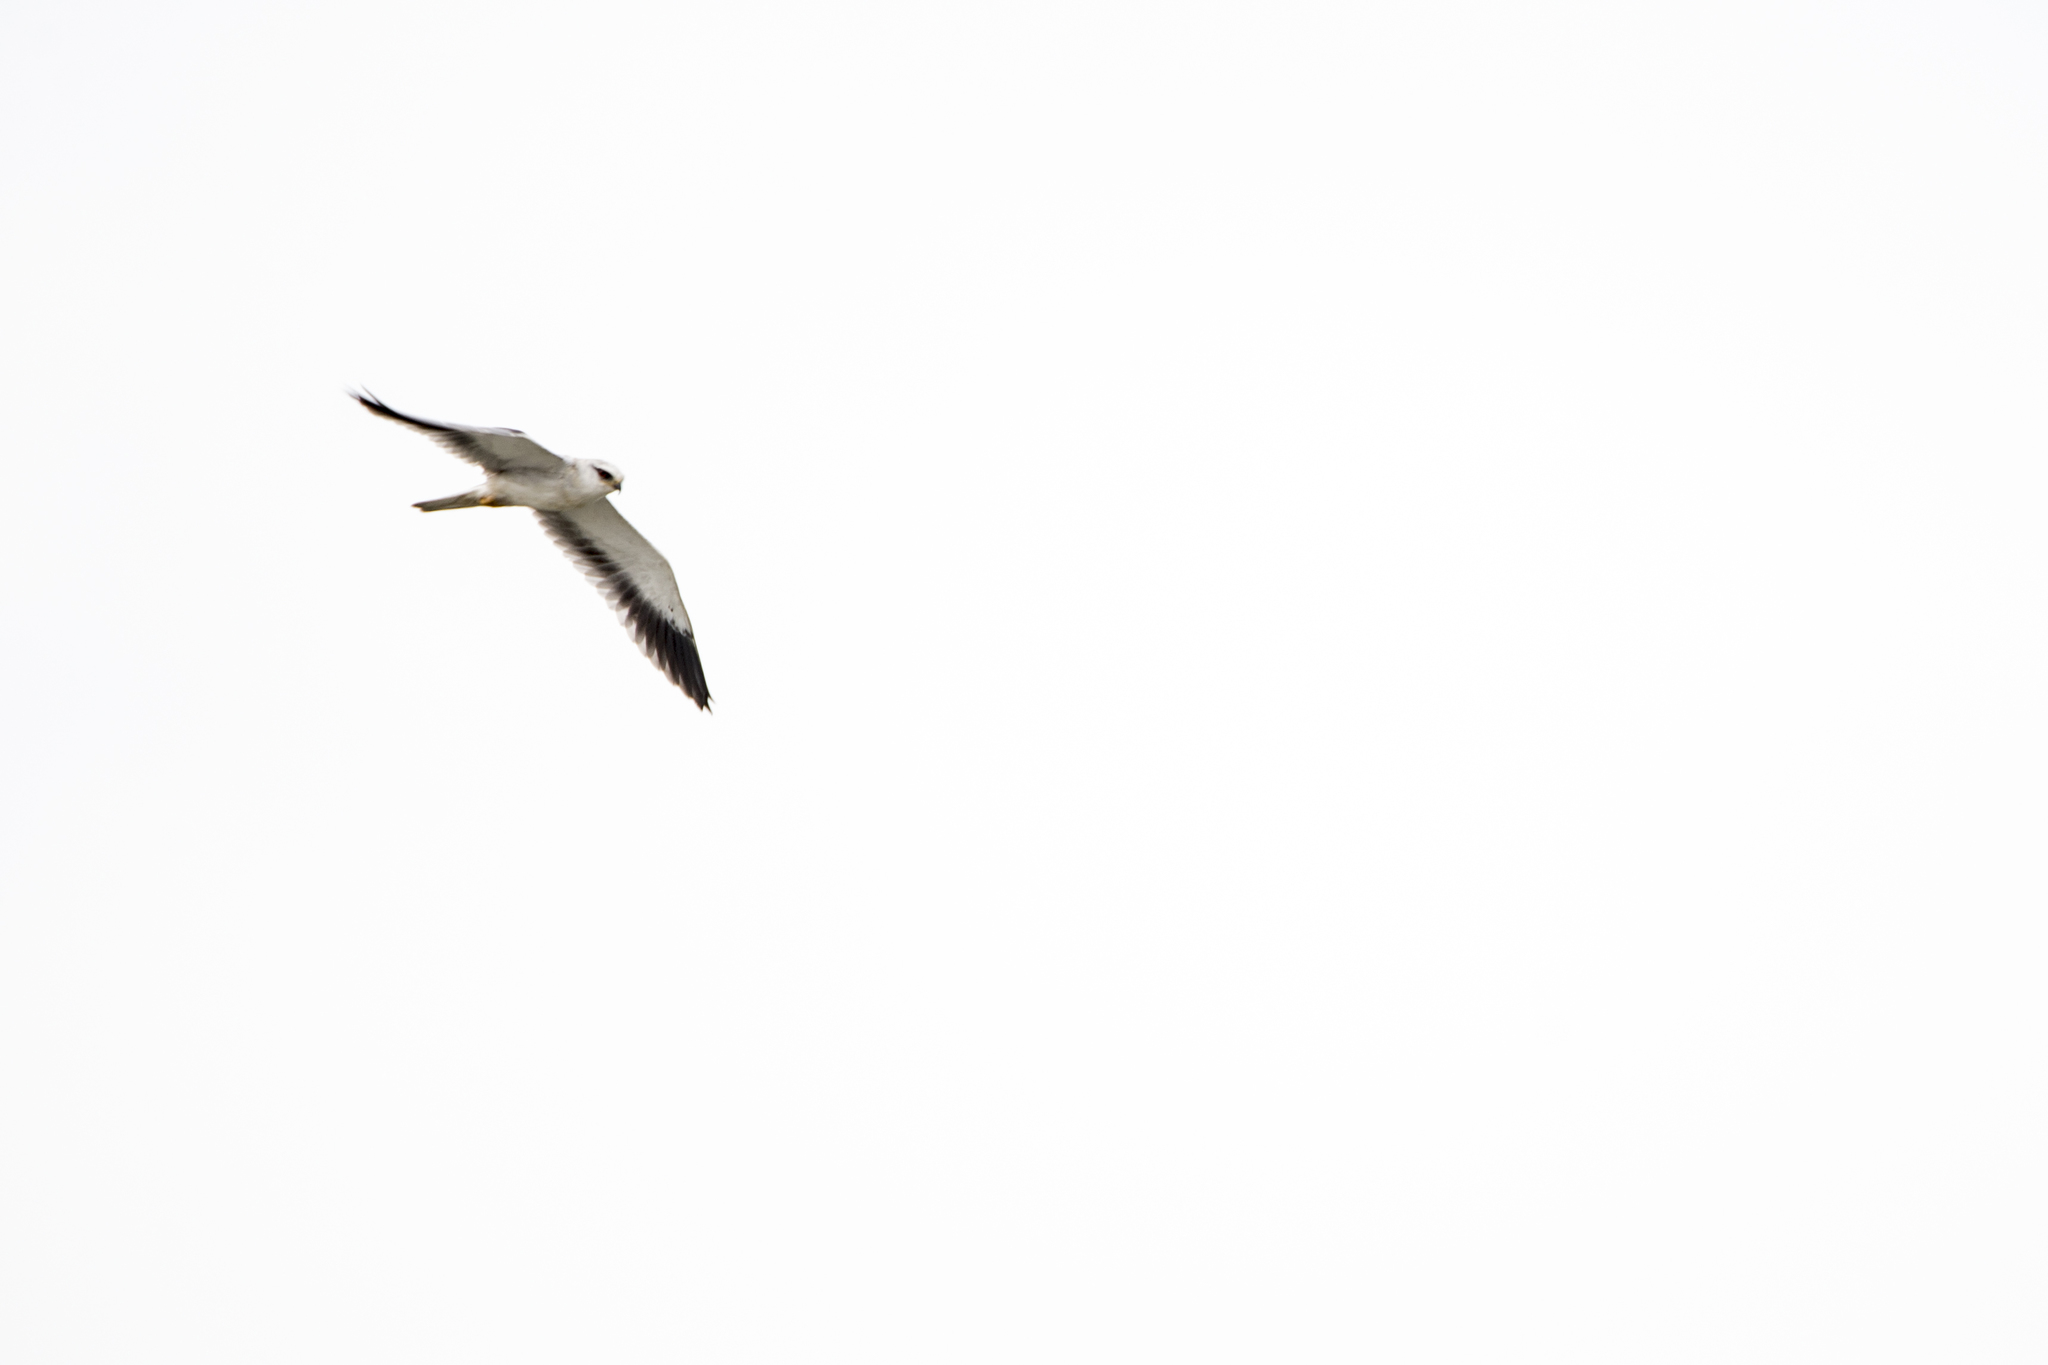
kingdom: Animalia
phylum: Chordata
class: Aves
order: Accipitriformes
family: Accipitridae
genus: Elanus
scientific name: Elanus caeruleus
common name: Black-winged kite
